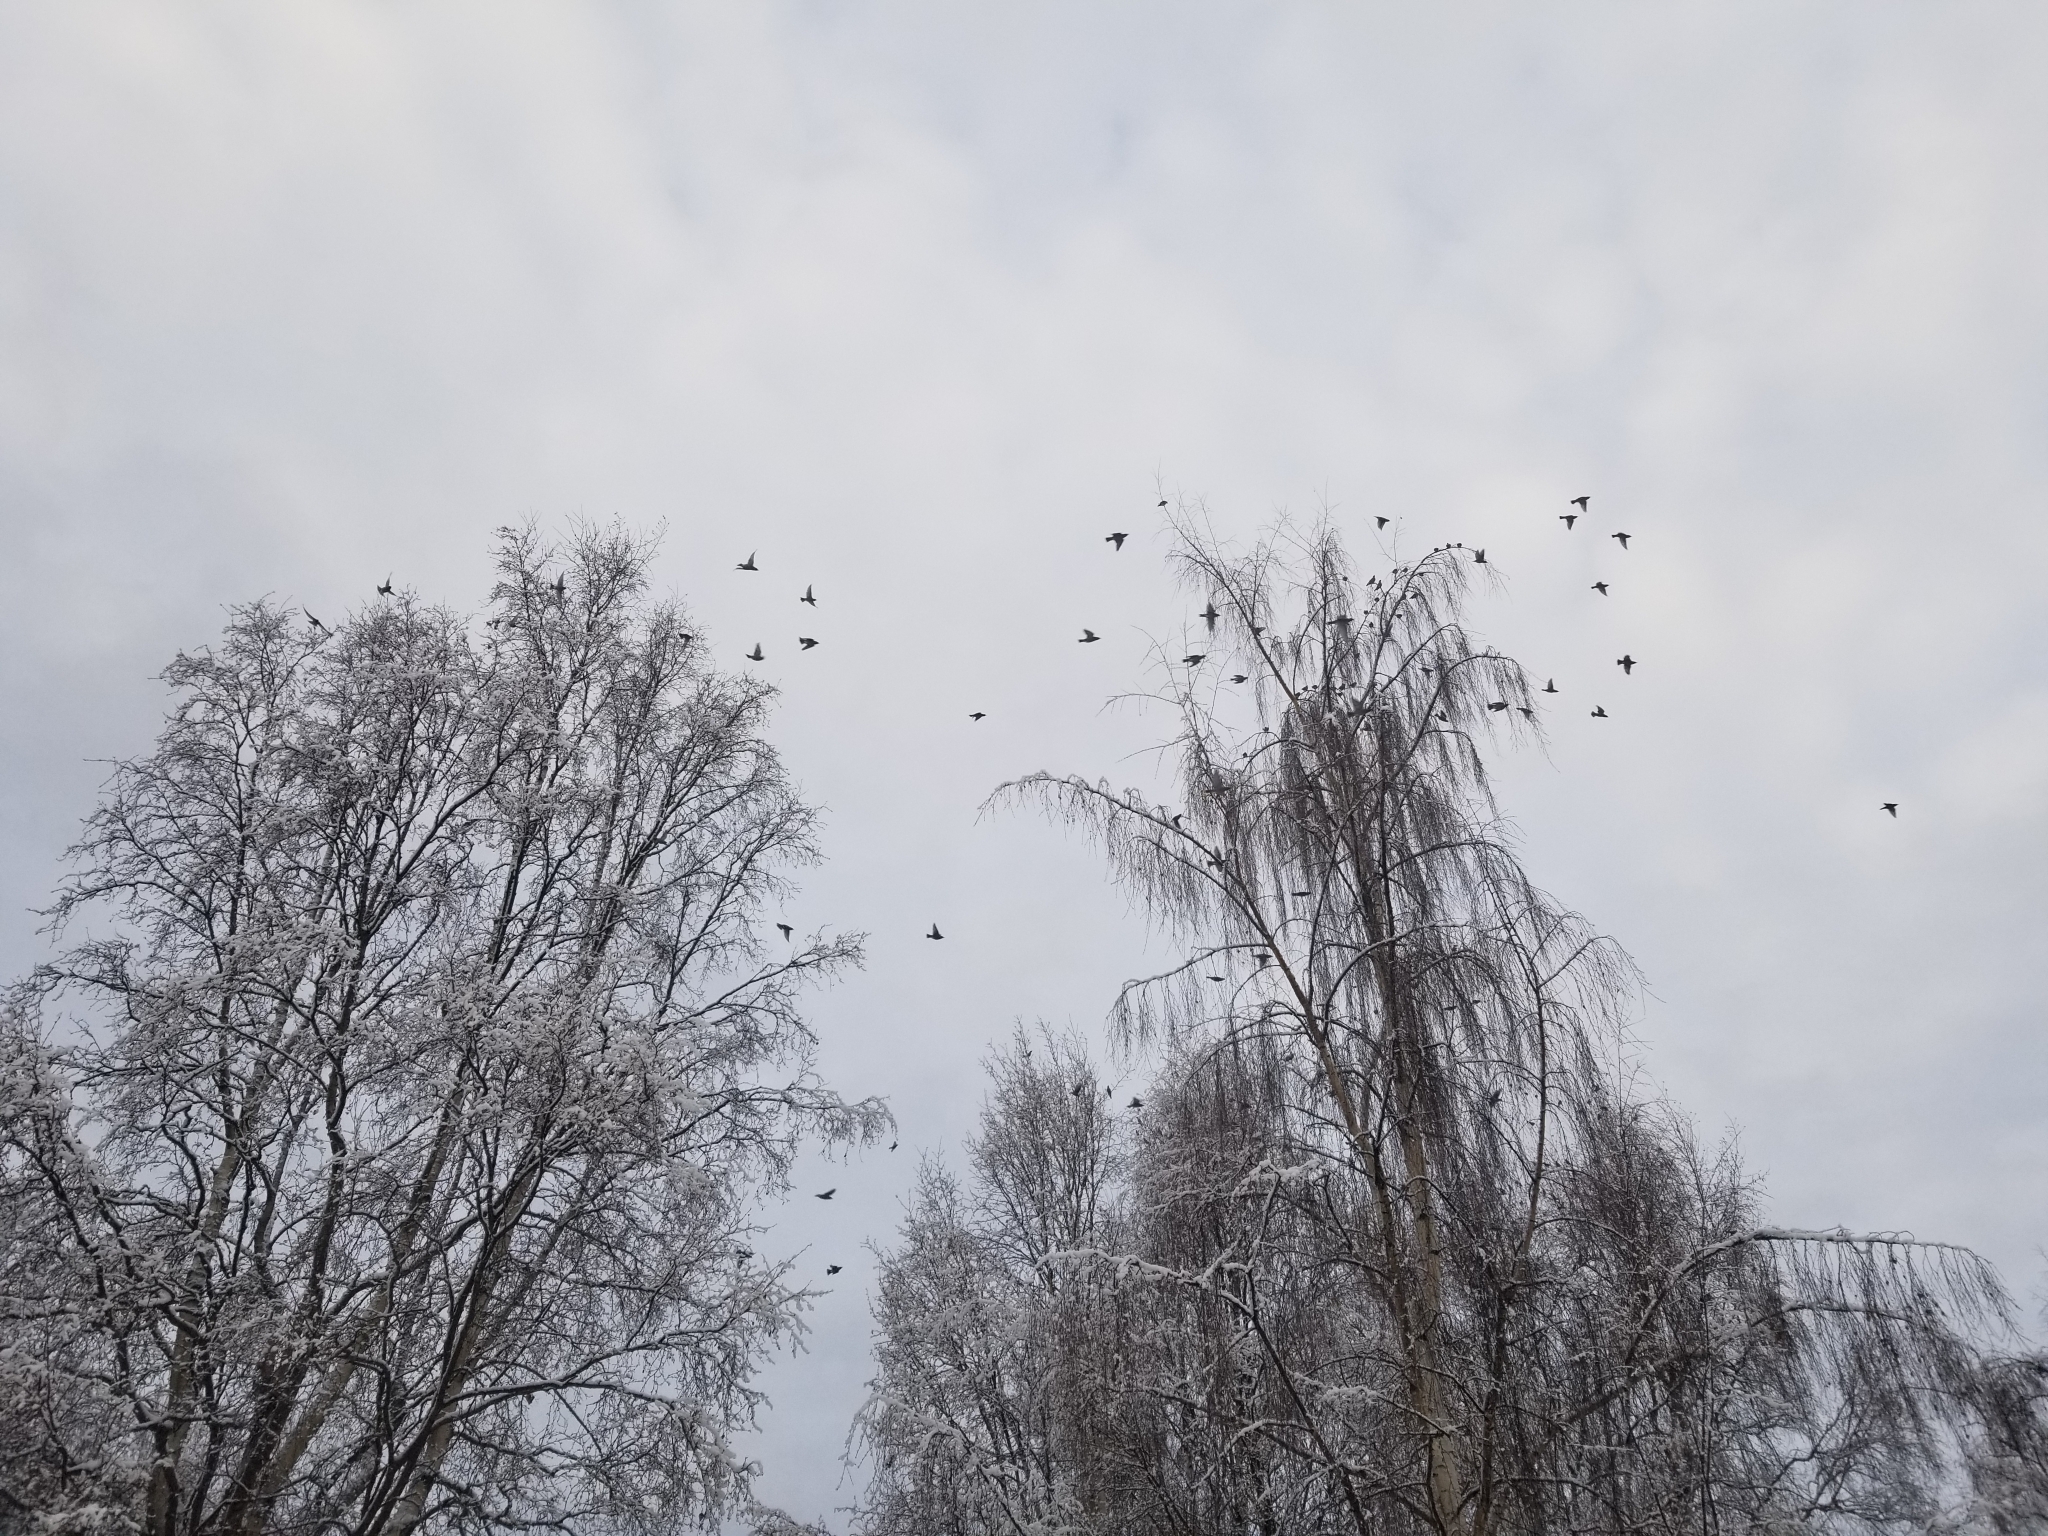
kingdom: Animalia
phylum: Chordata
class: Aves
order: Passeriformes
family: Bombycillidae
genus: Bombycilla
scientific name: Bombycilla garrulus
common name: Bohemian waxwing
